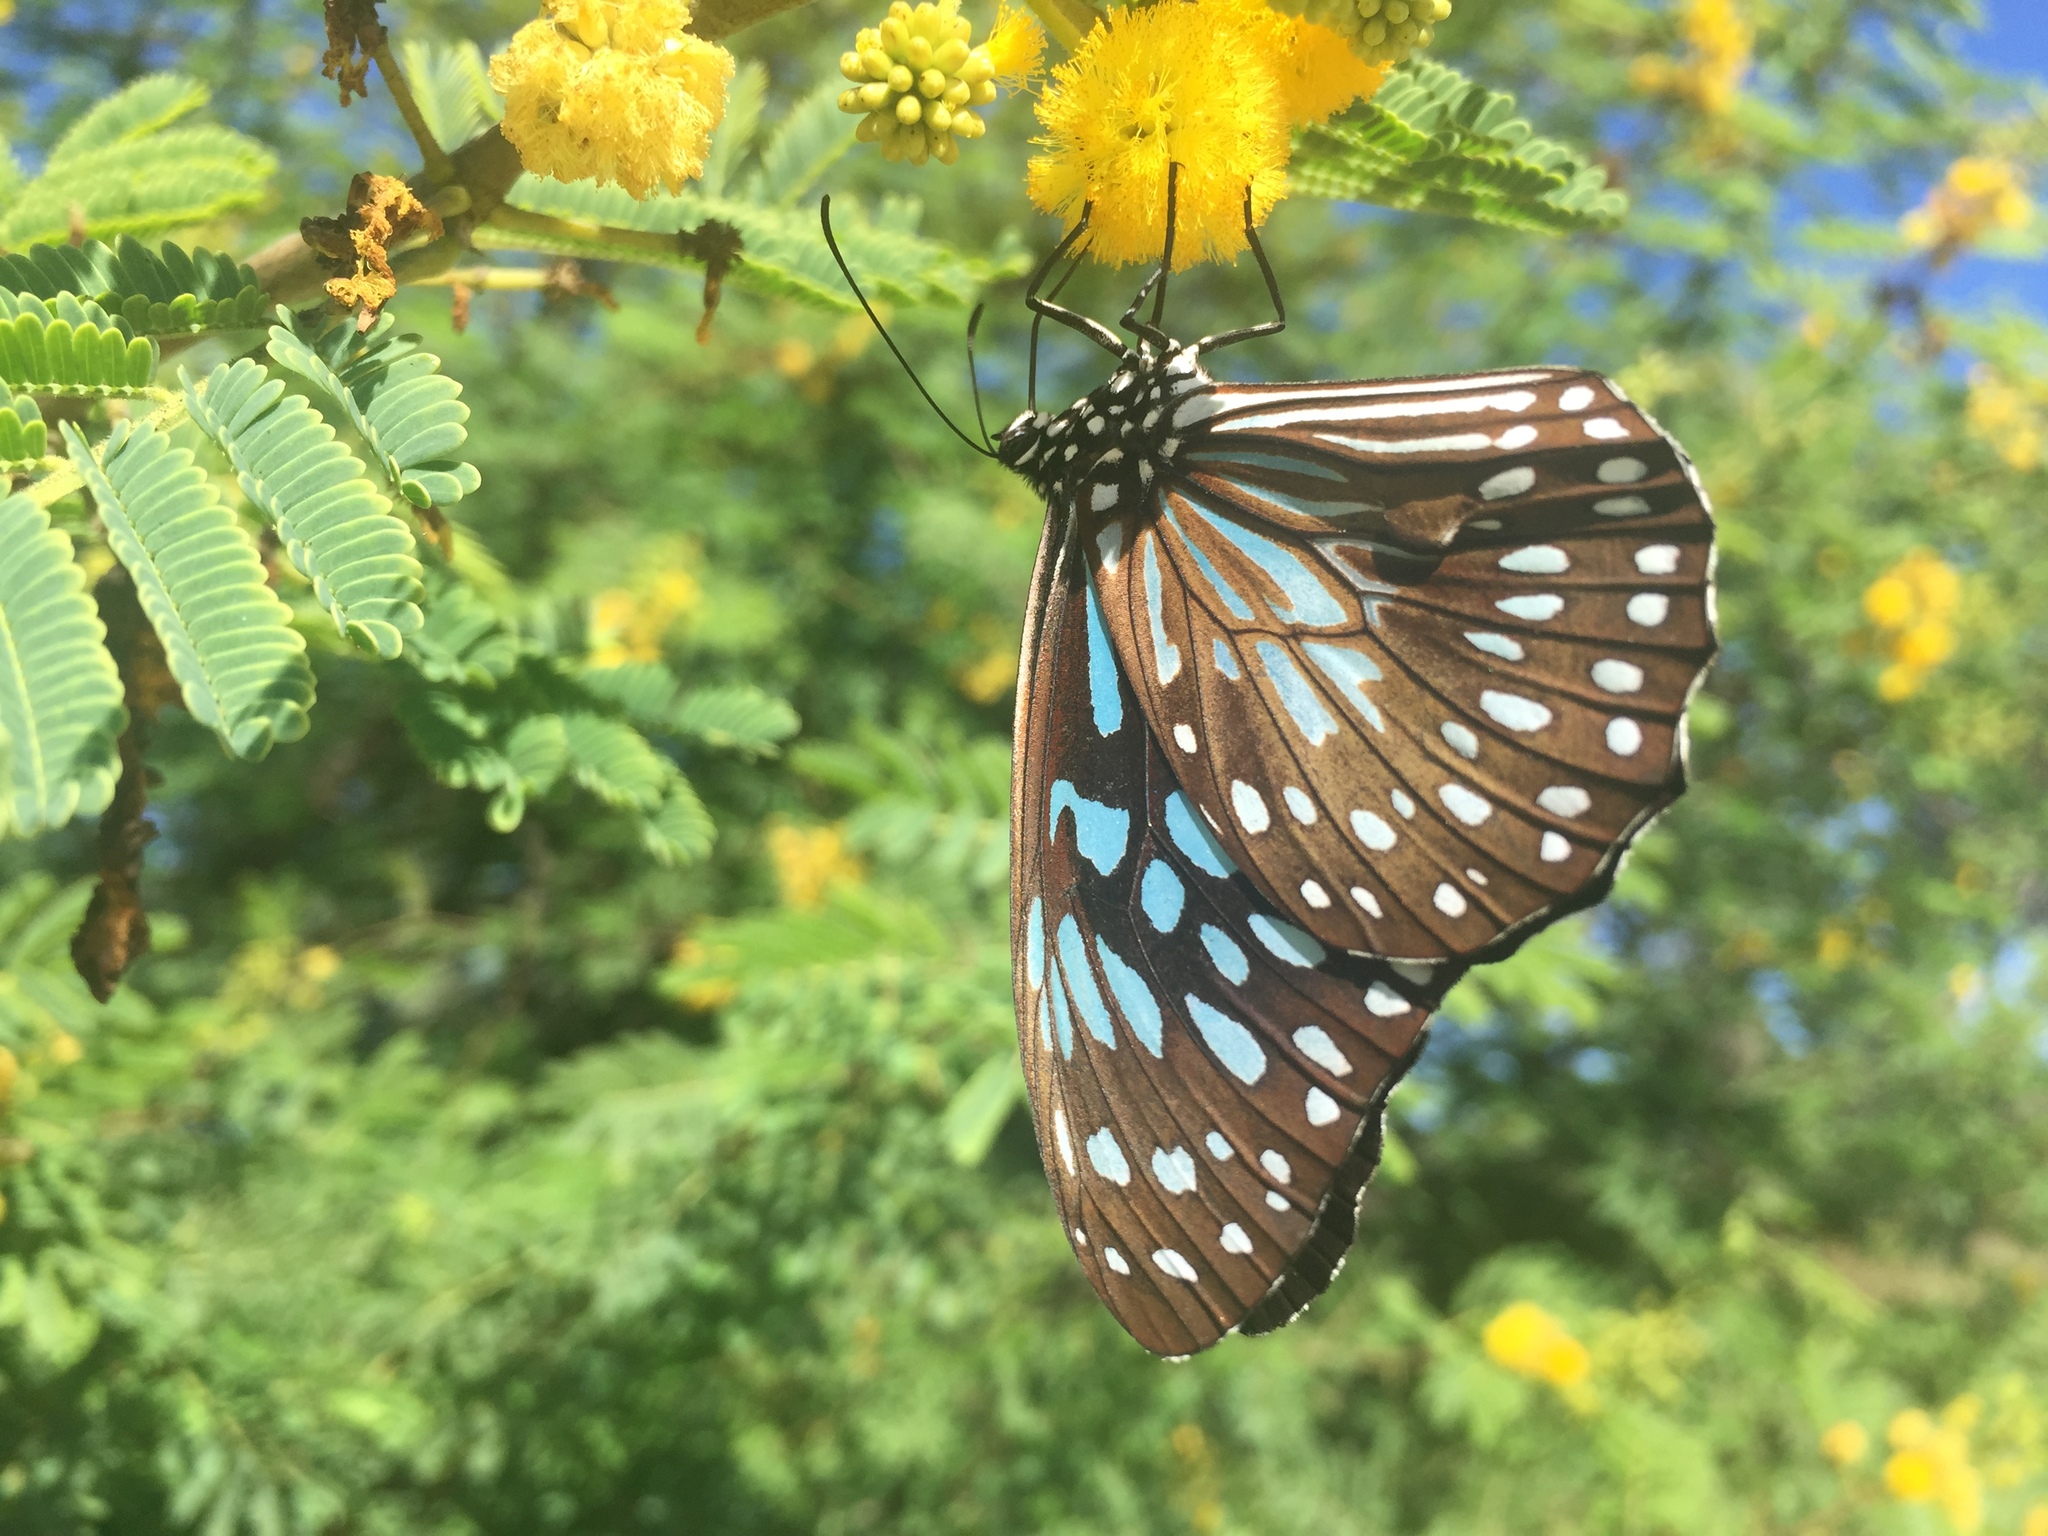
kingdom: Animalia
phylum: Arthropoda
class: Insecta
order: Lepidoptera
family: Nymphalidae
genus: Tirumala
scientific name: Tirumala hamata
